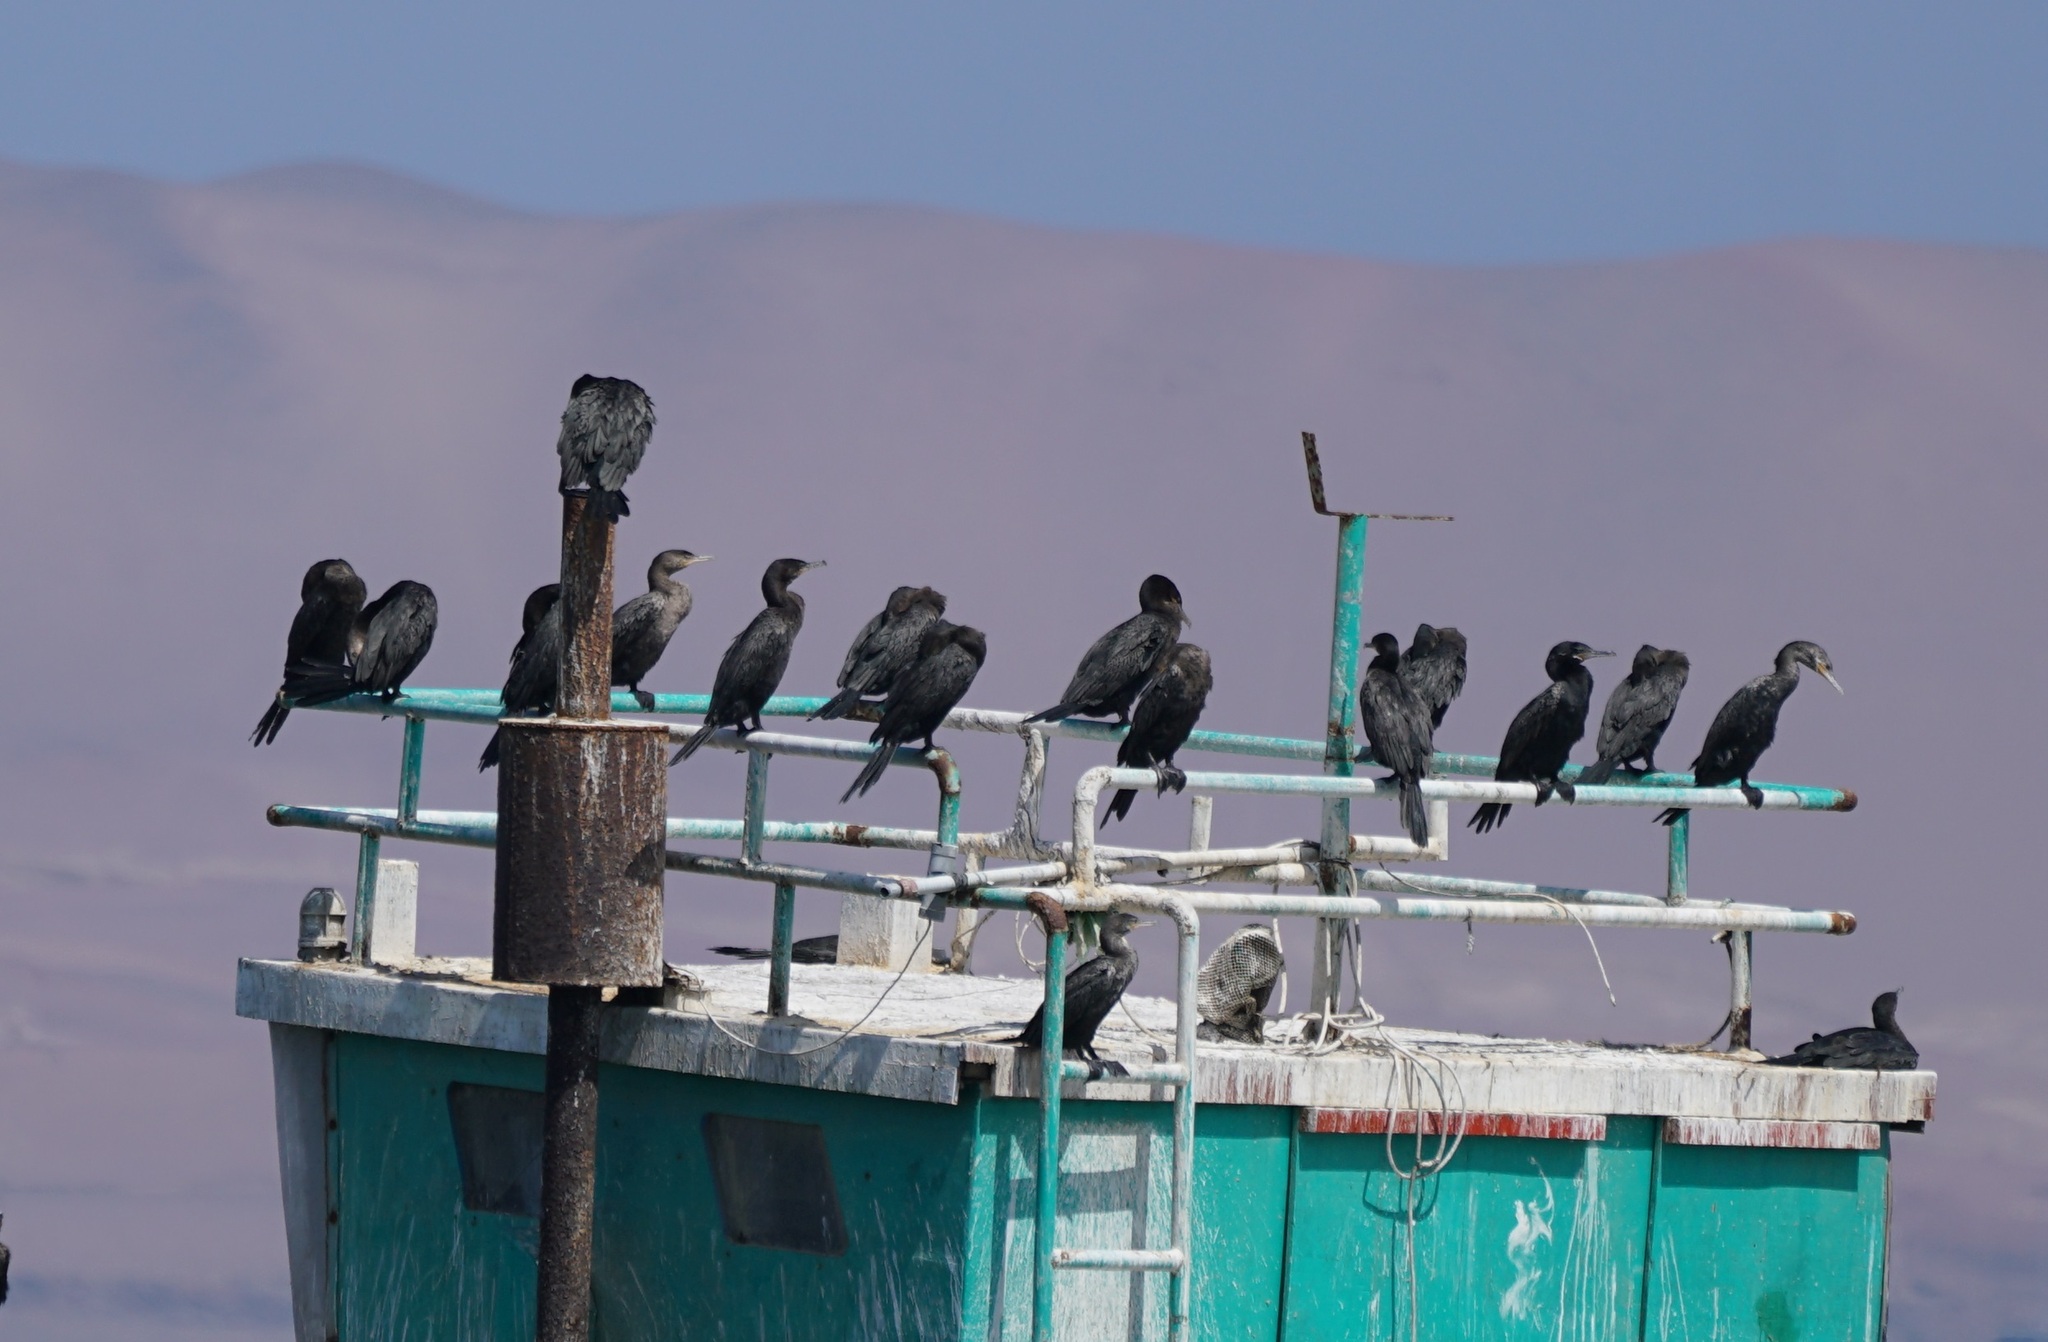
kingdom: Animalia
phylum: Chordata
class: Aves
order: Suliformes
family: Phalacrocoracidae
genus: Phalacrocorax
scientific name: Phalacrocorax brasilianus
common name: Neotropic cormorant
